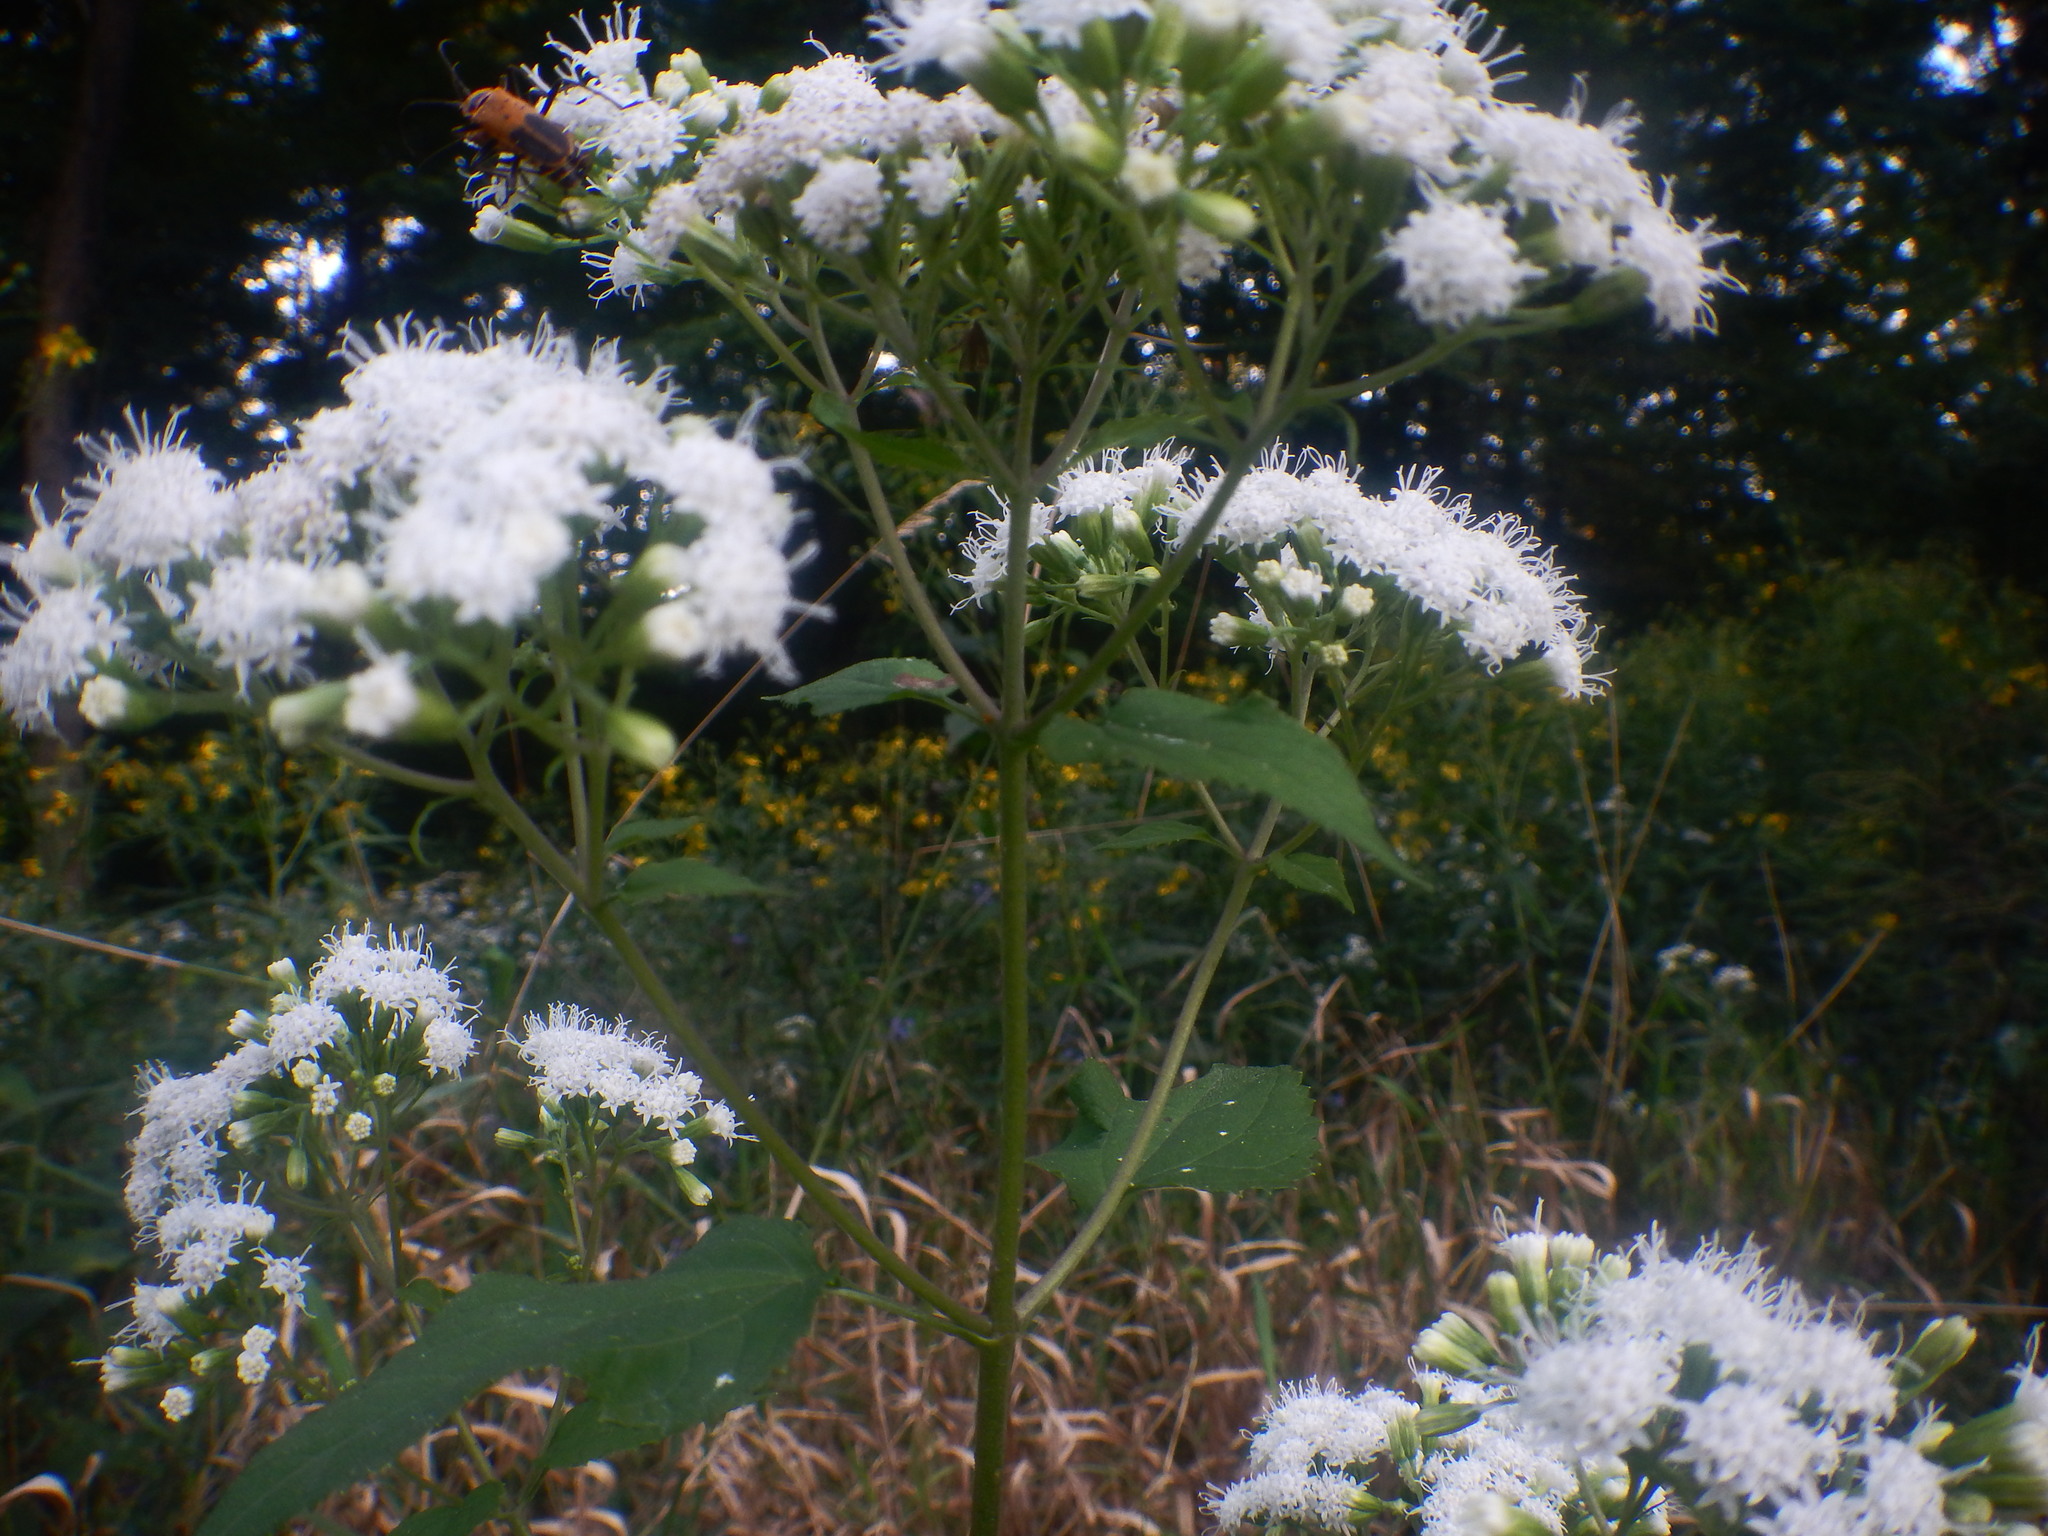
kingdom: Plantae
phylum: Tracheophyta
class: Magnoliopsida
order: Asterales
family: Asteraceae
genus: Ageratina
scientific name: Ageratina altissima
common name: White snakeroot
